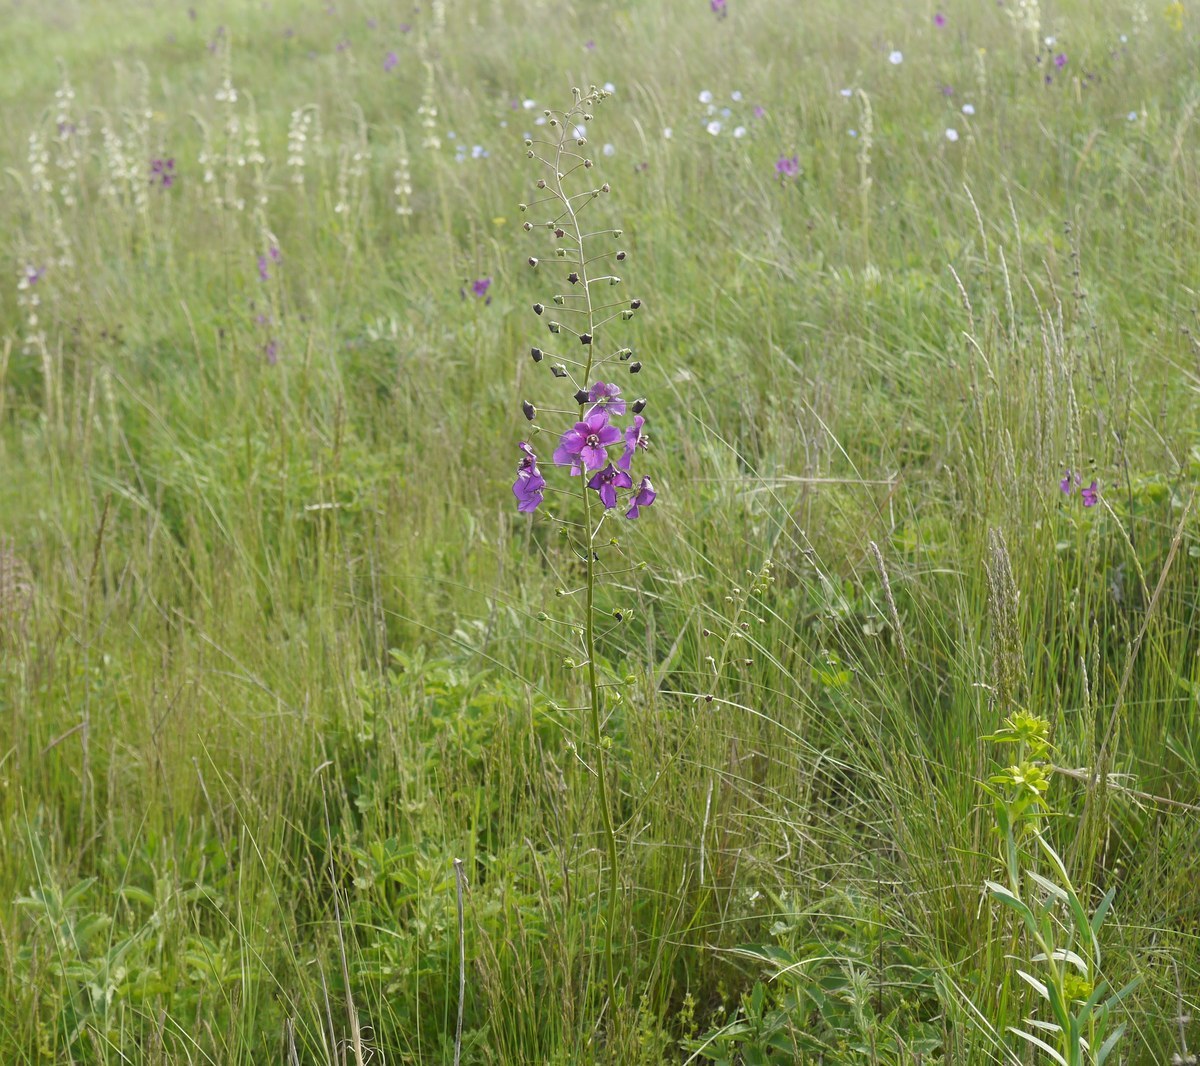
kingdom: Plantae
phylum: Tracheophyta
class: Magnoliopsida
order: Lamiales
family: Scrophulariaceae
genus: Verbascum
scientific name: Verbascum phoeniceum
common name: Purple mullein
